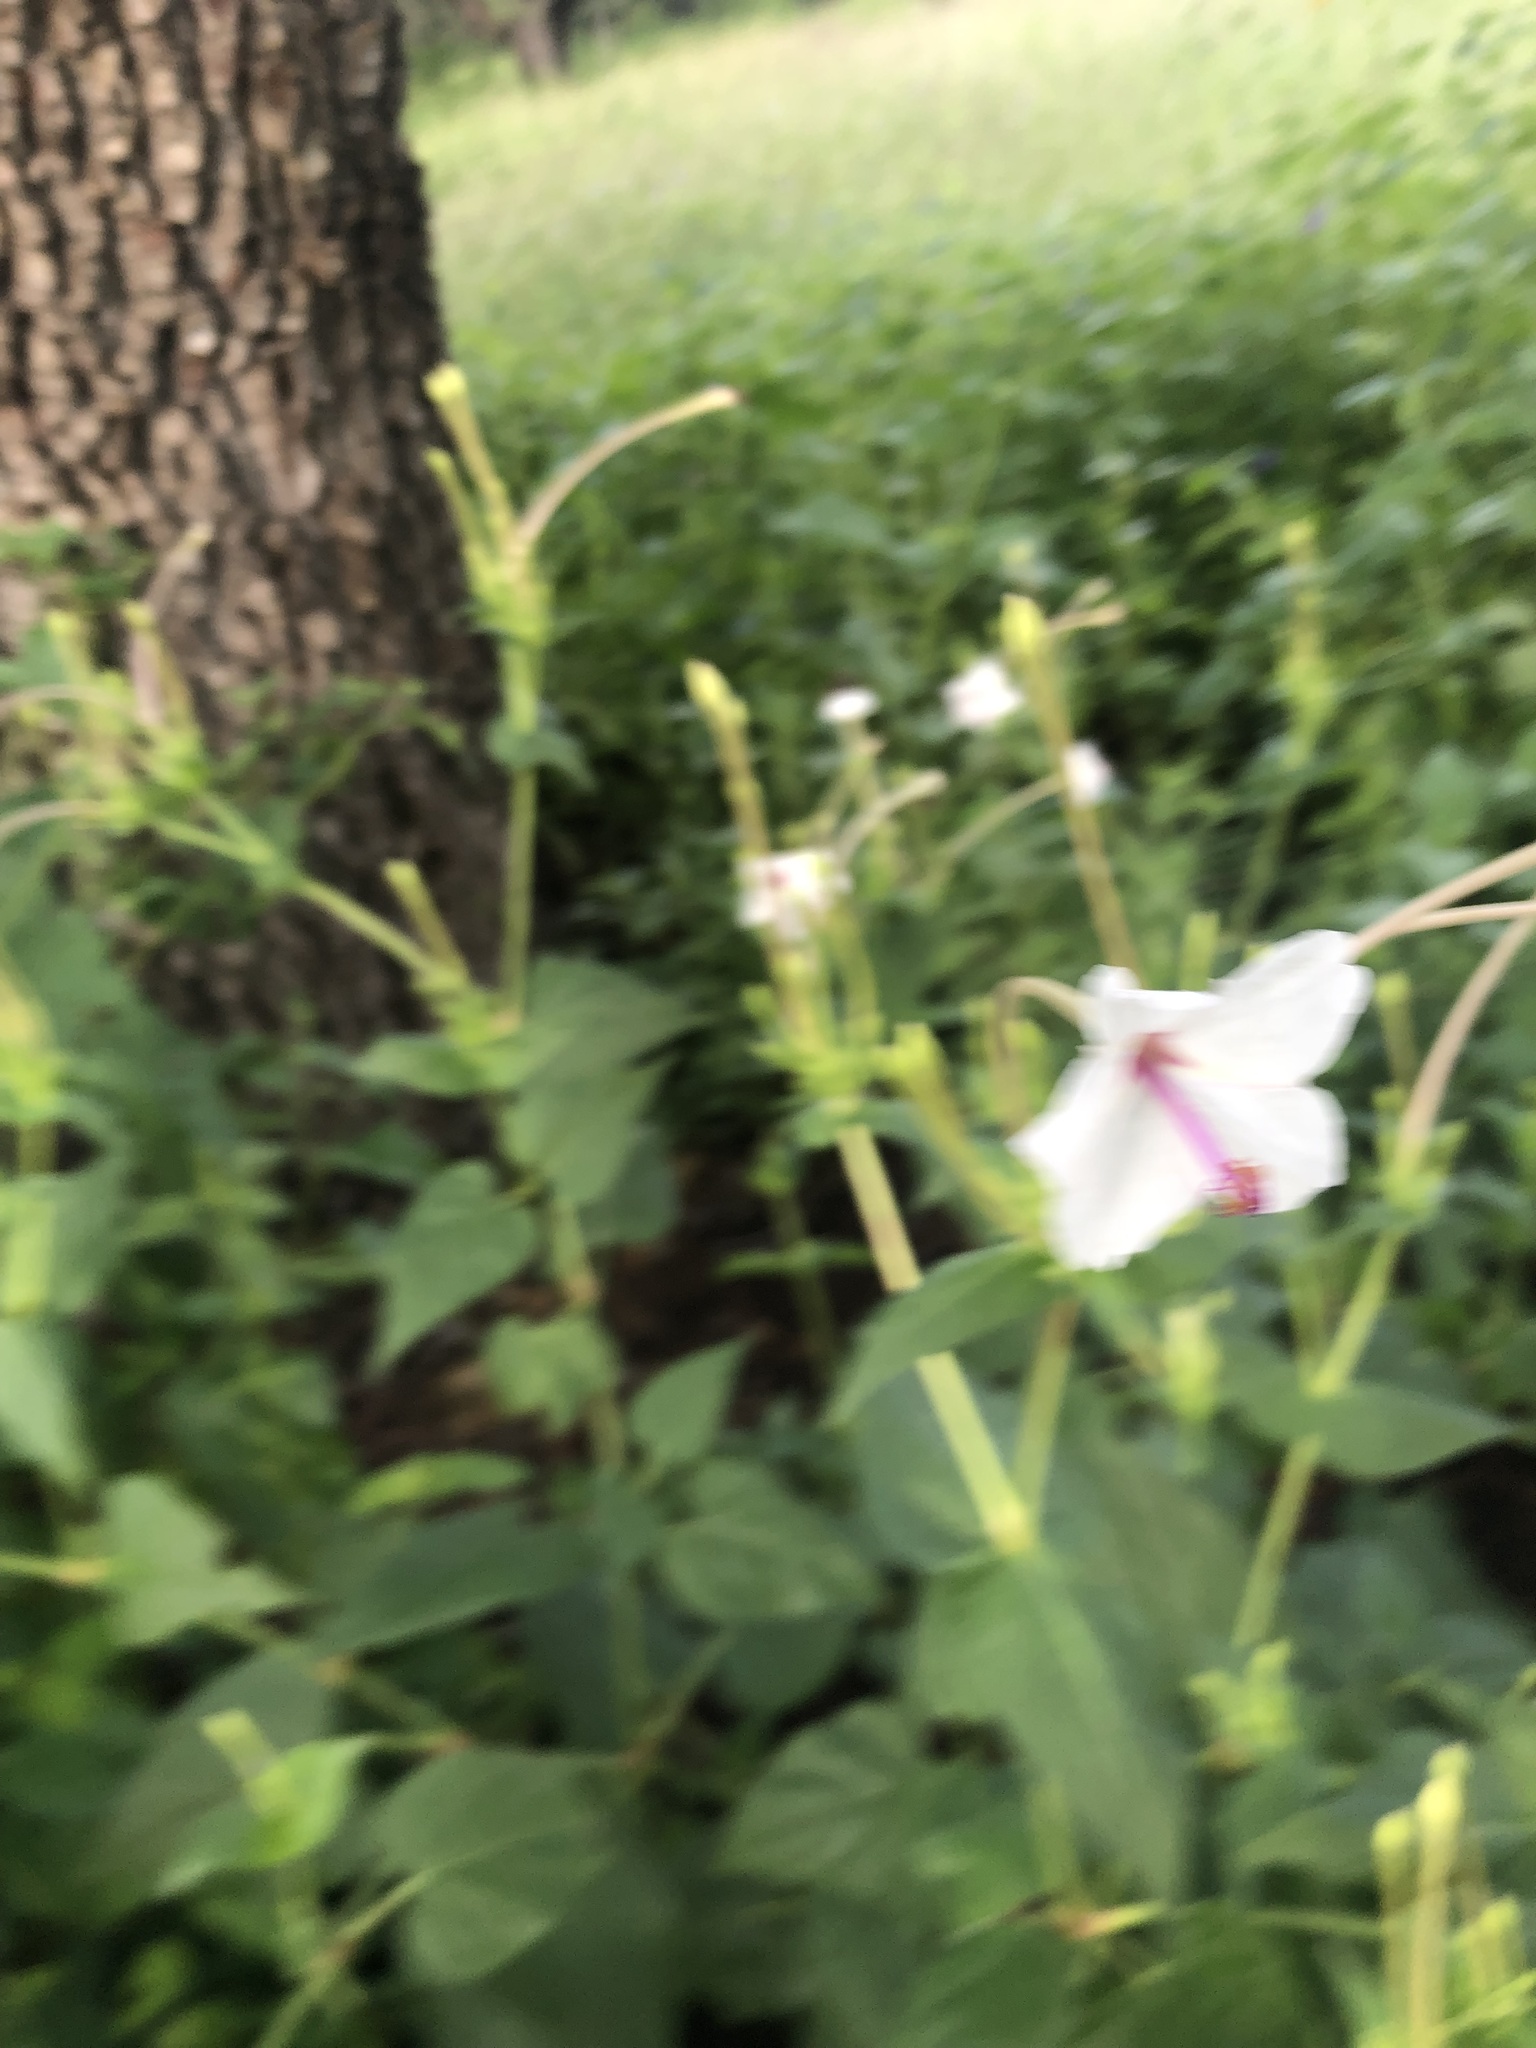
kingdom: Plantae
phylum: Tracheophyta
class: Magnoliopsida
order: Caryophyllales
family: Nyctaginaceae
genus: Mirabilis
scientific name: Mirabilis longiflora
